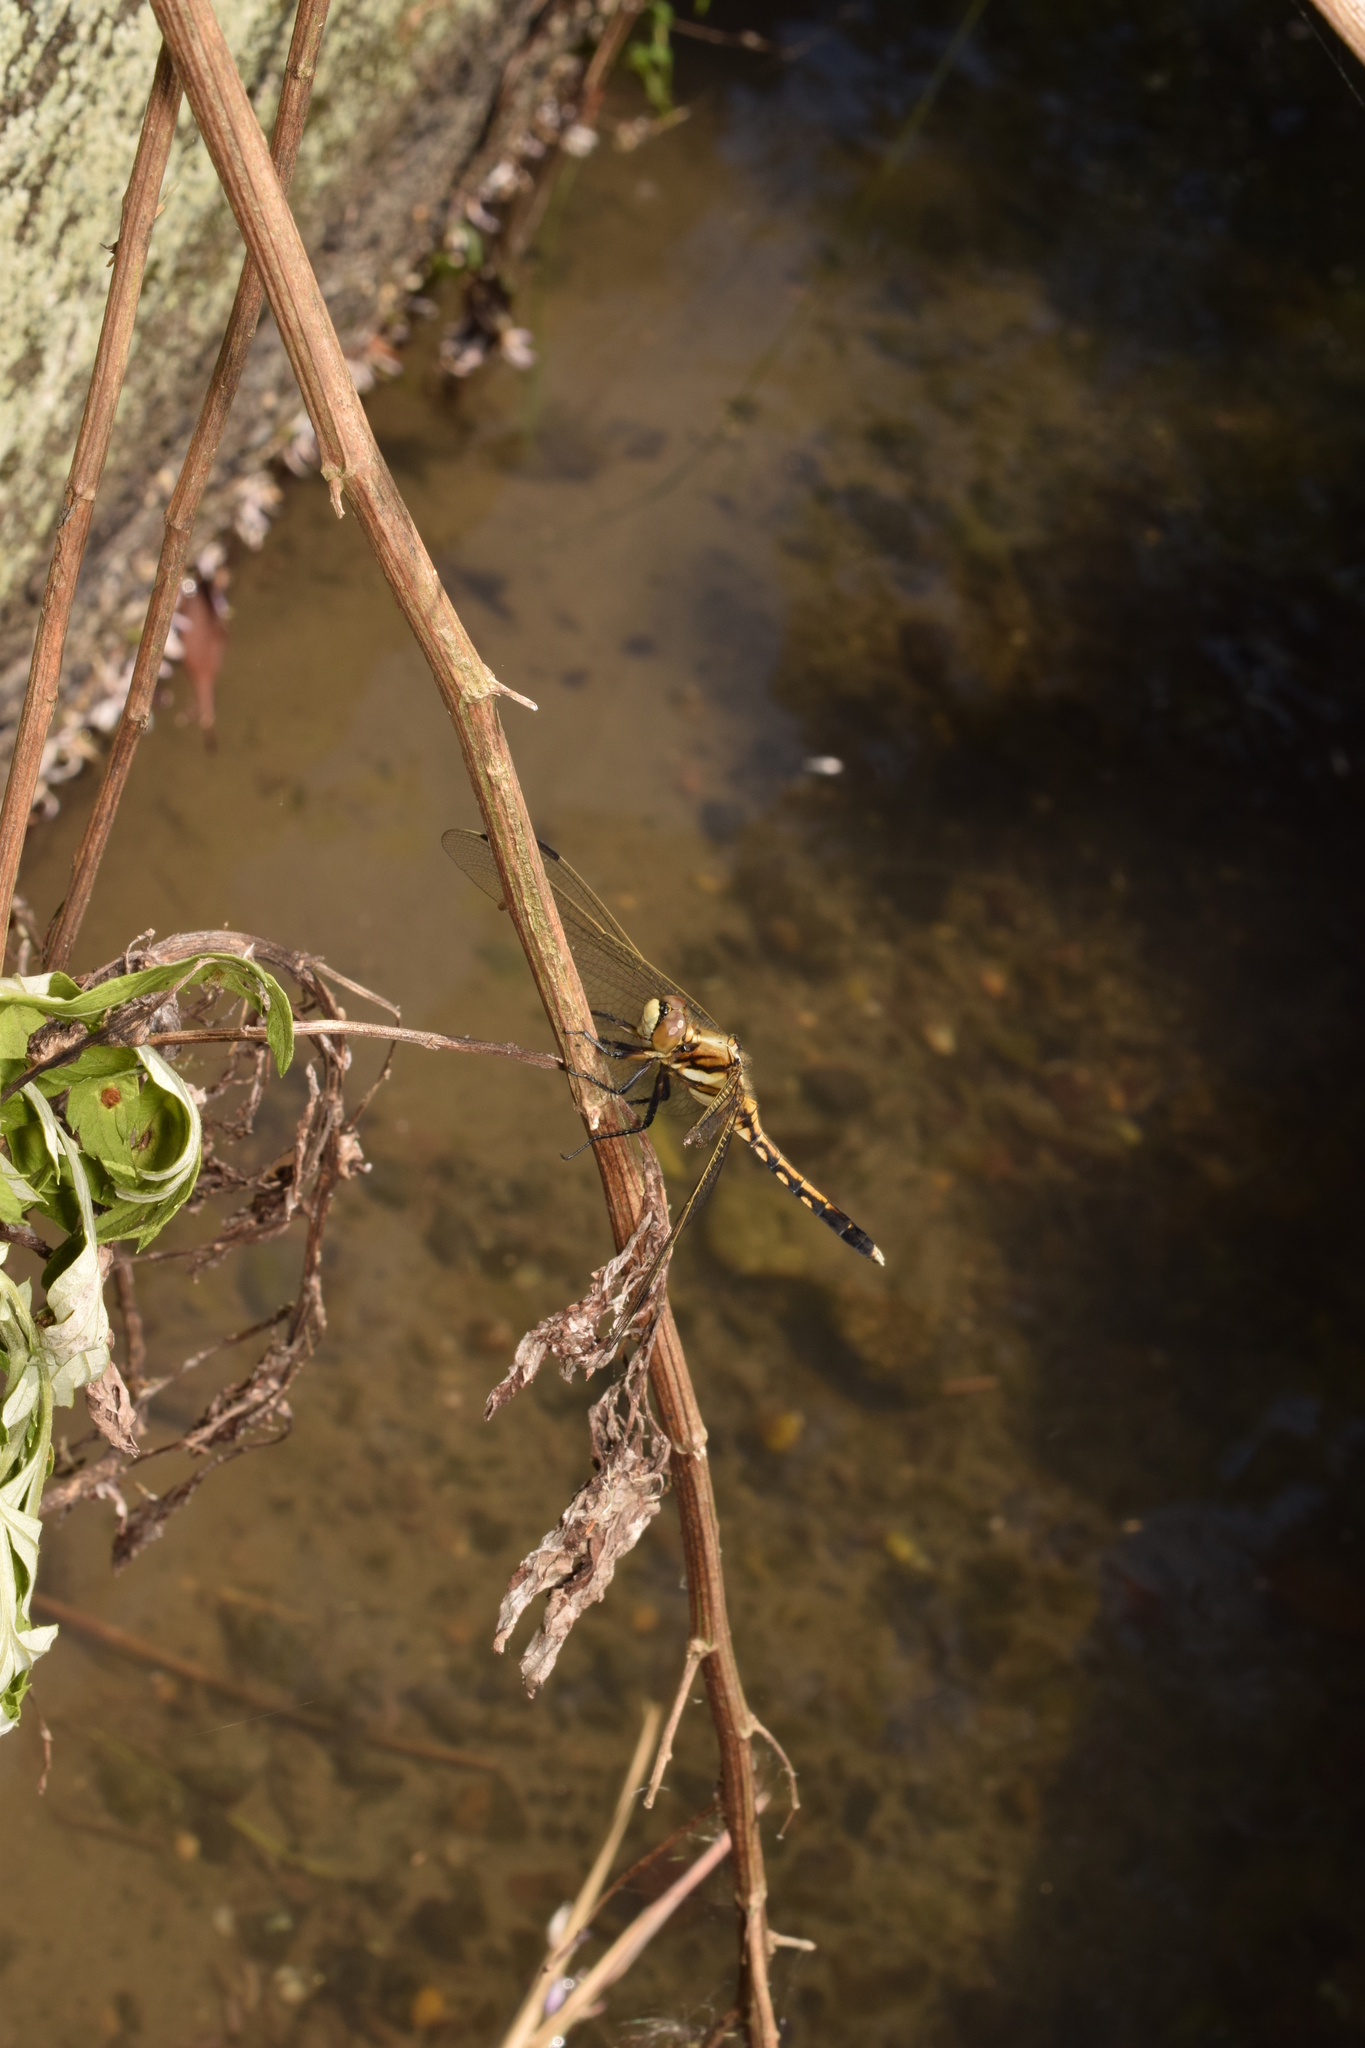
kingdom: Animalia
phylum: Arthropoda
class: Insecta
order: Odonata
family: Libellulidae
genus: Orthetrum
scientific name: Orthetrum albistylum
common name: White-tailed skimmer
